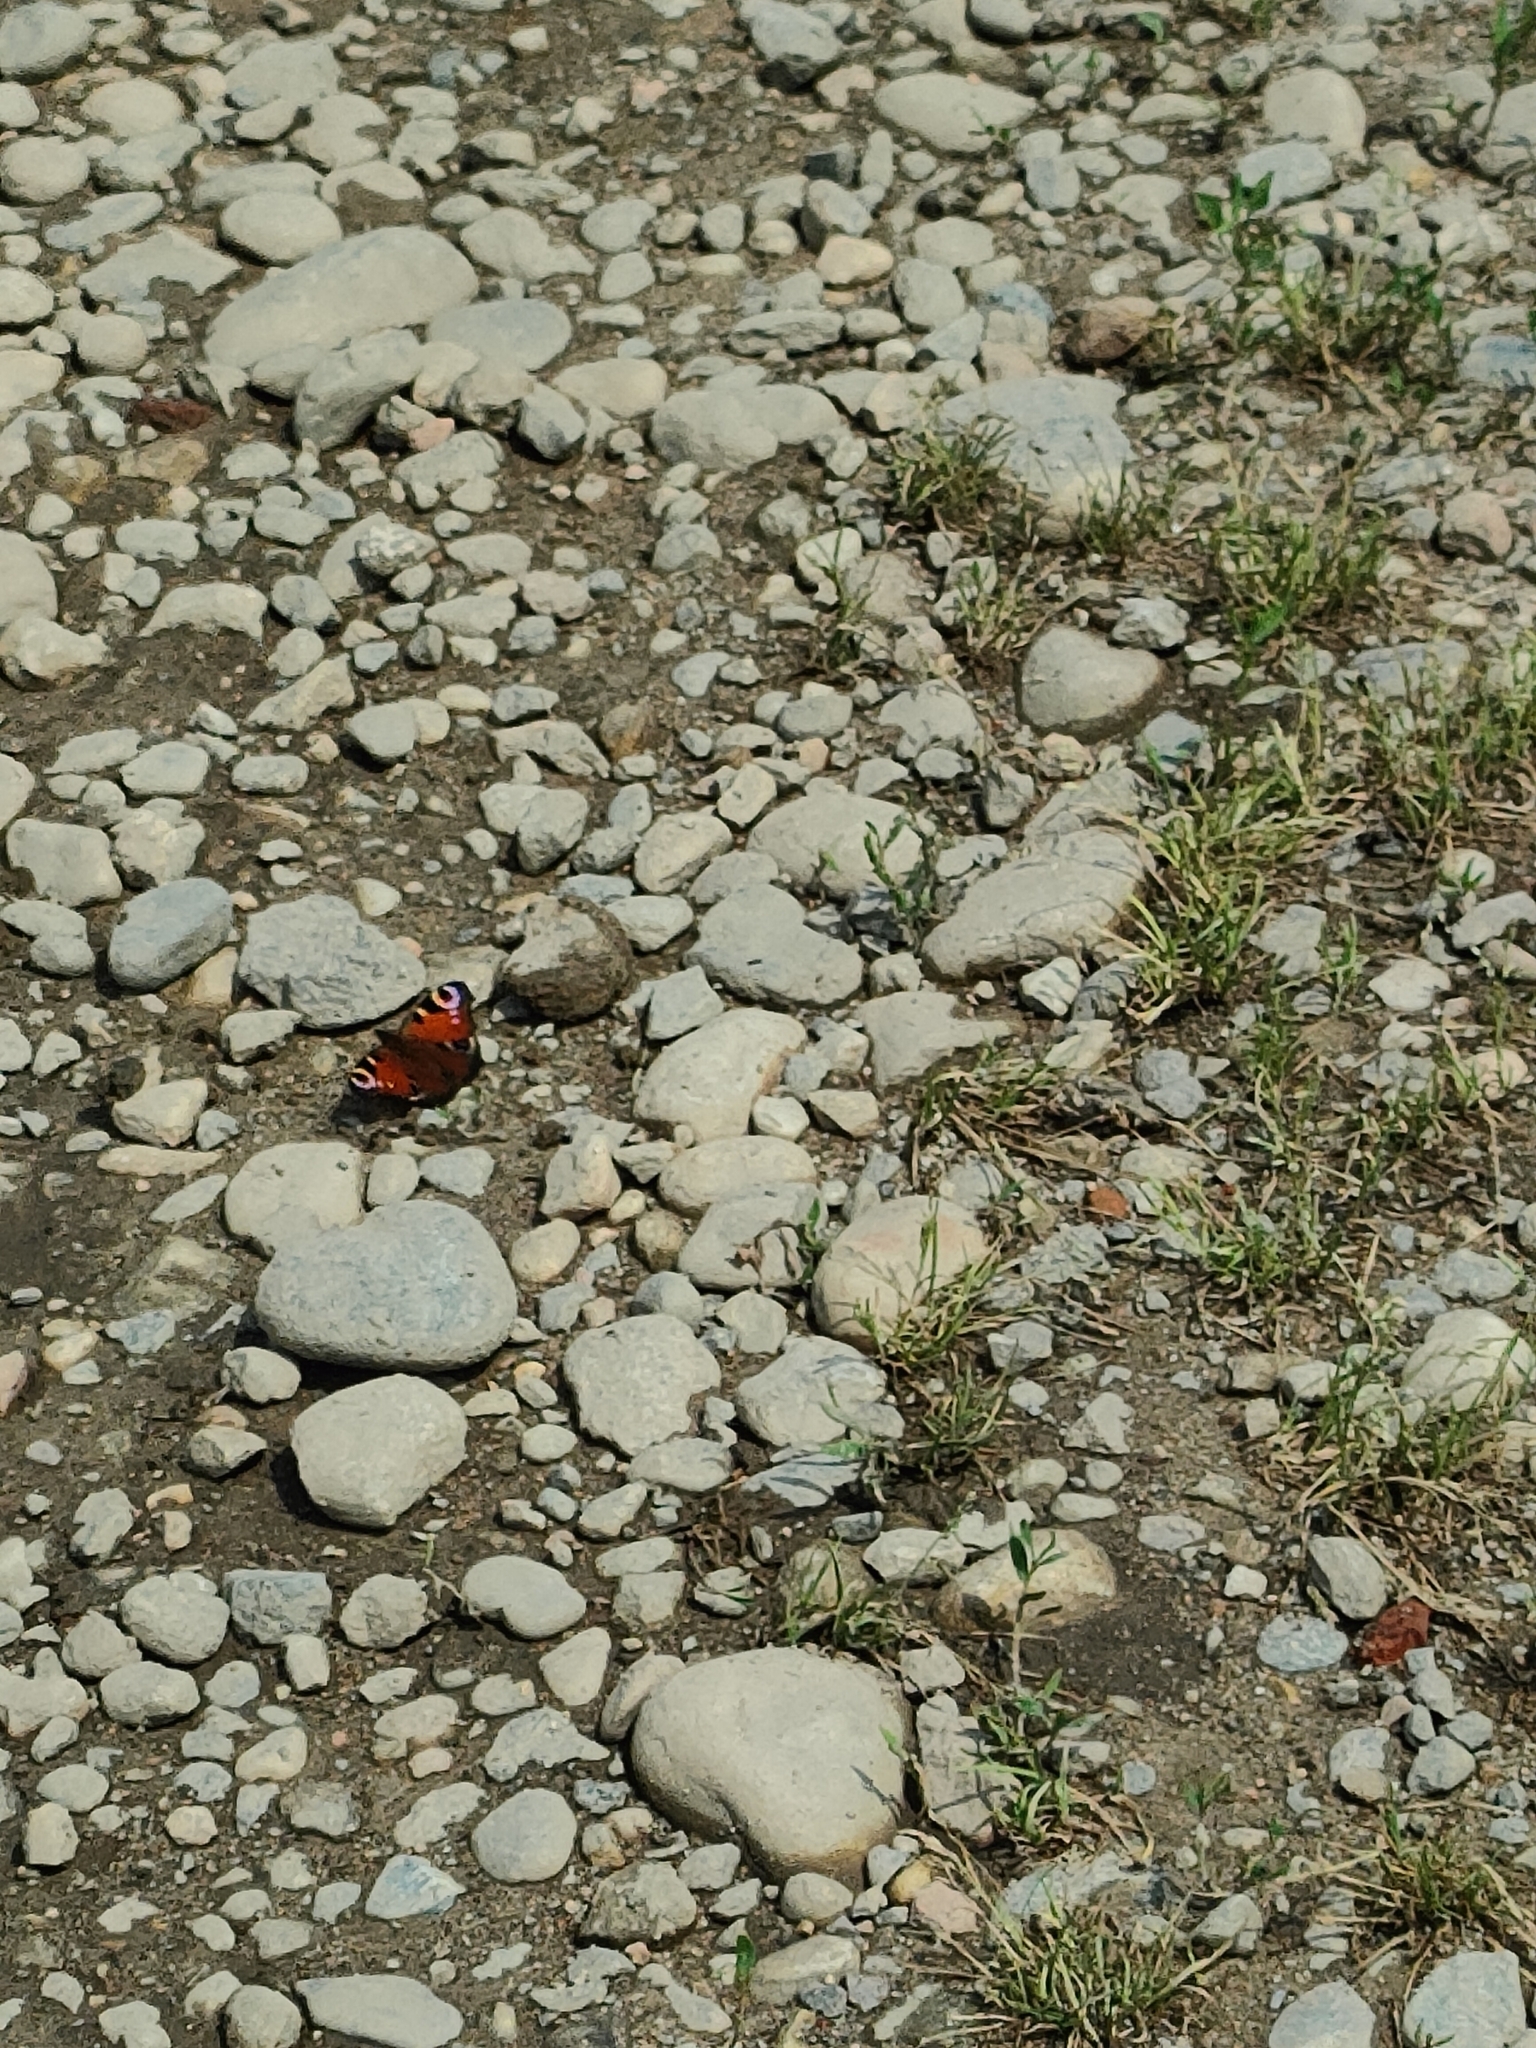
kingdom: Animalia
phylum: Arthropoda
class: Insecta
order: Lepidoptera
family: Nymphalidae
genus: Aglais
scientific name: Aglais io
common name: Peacock
